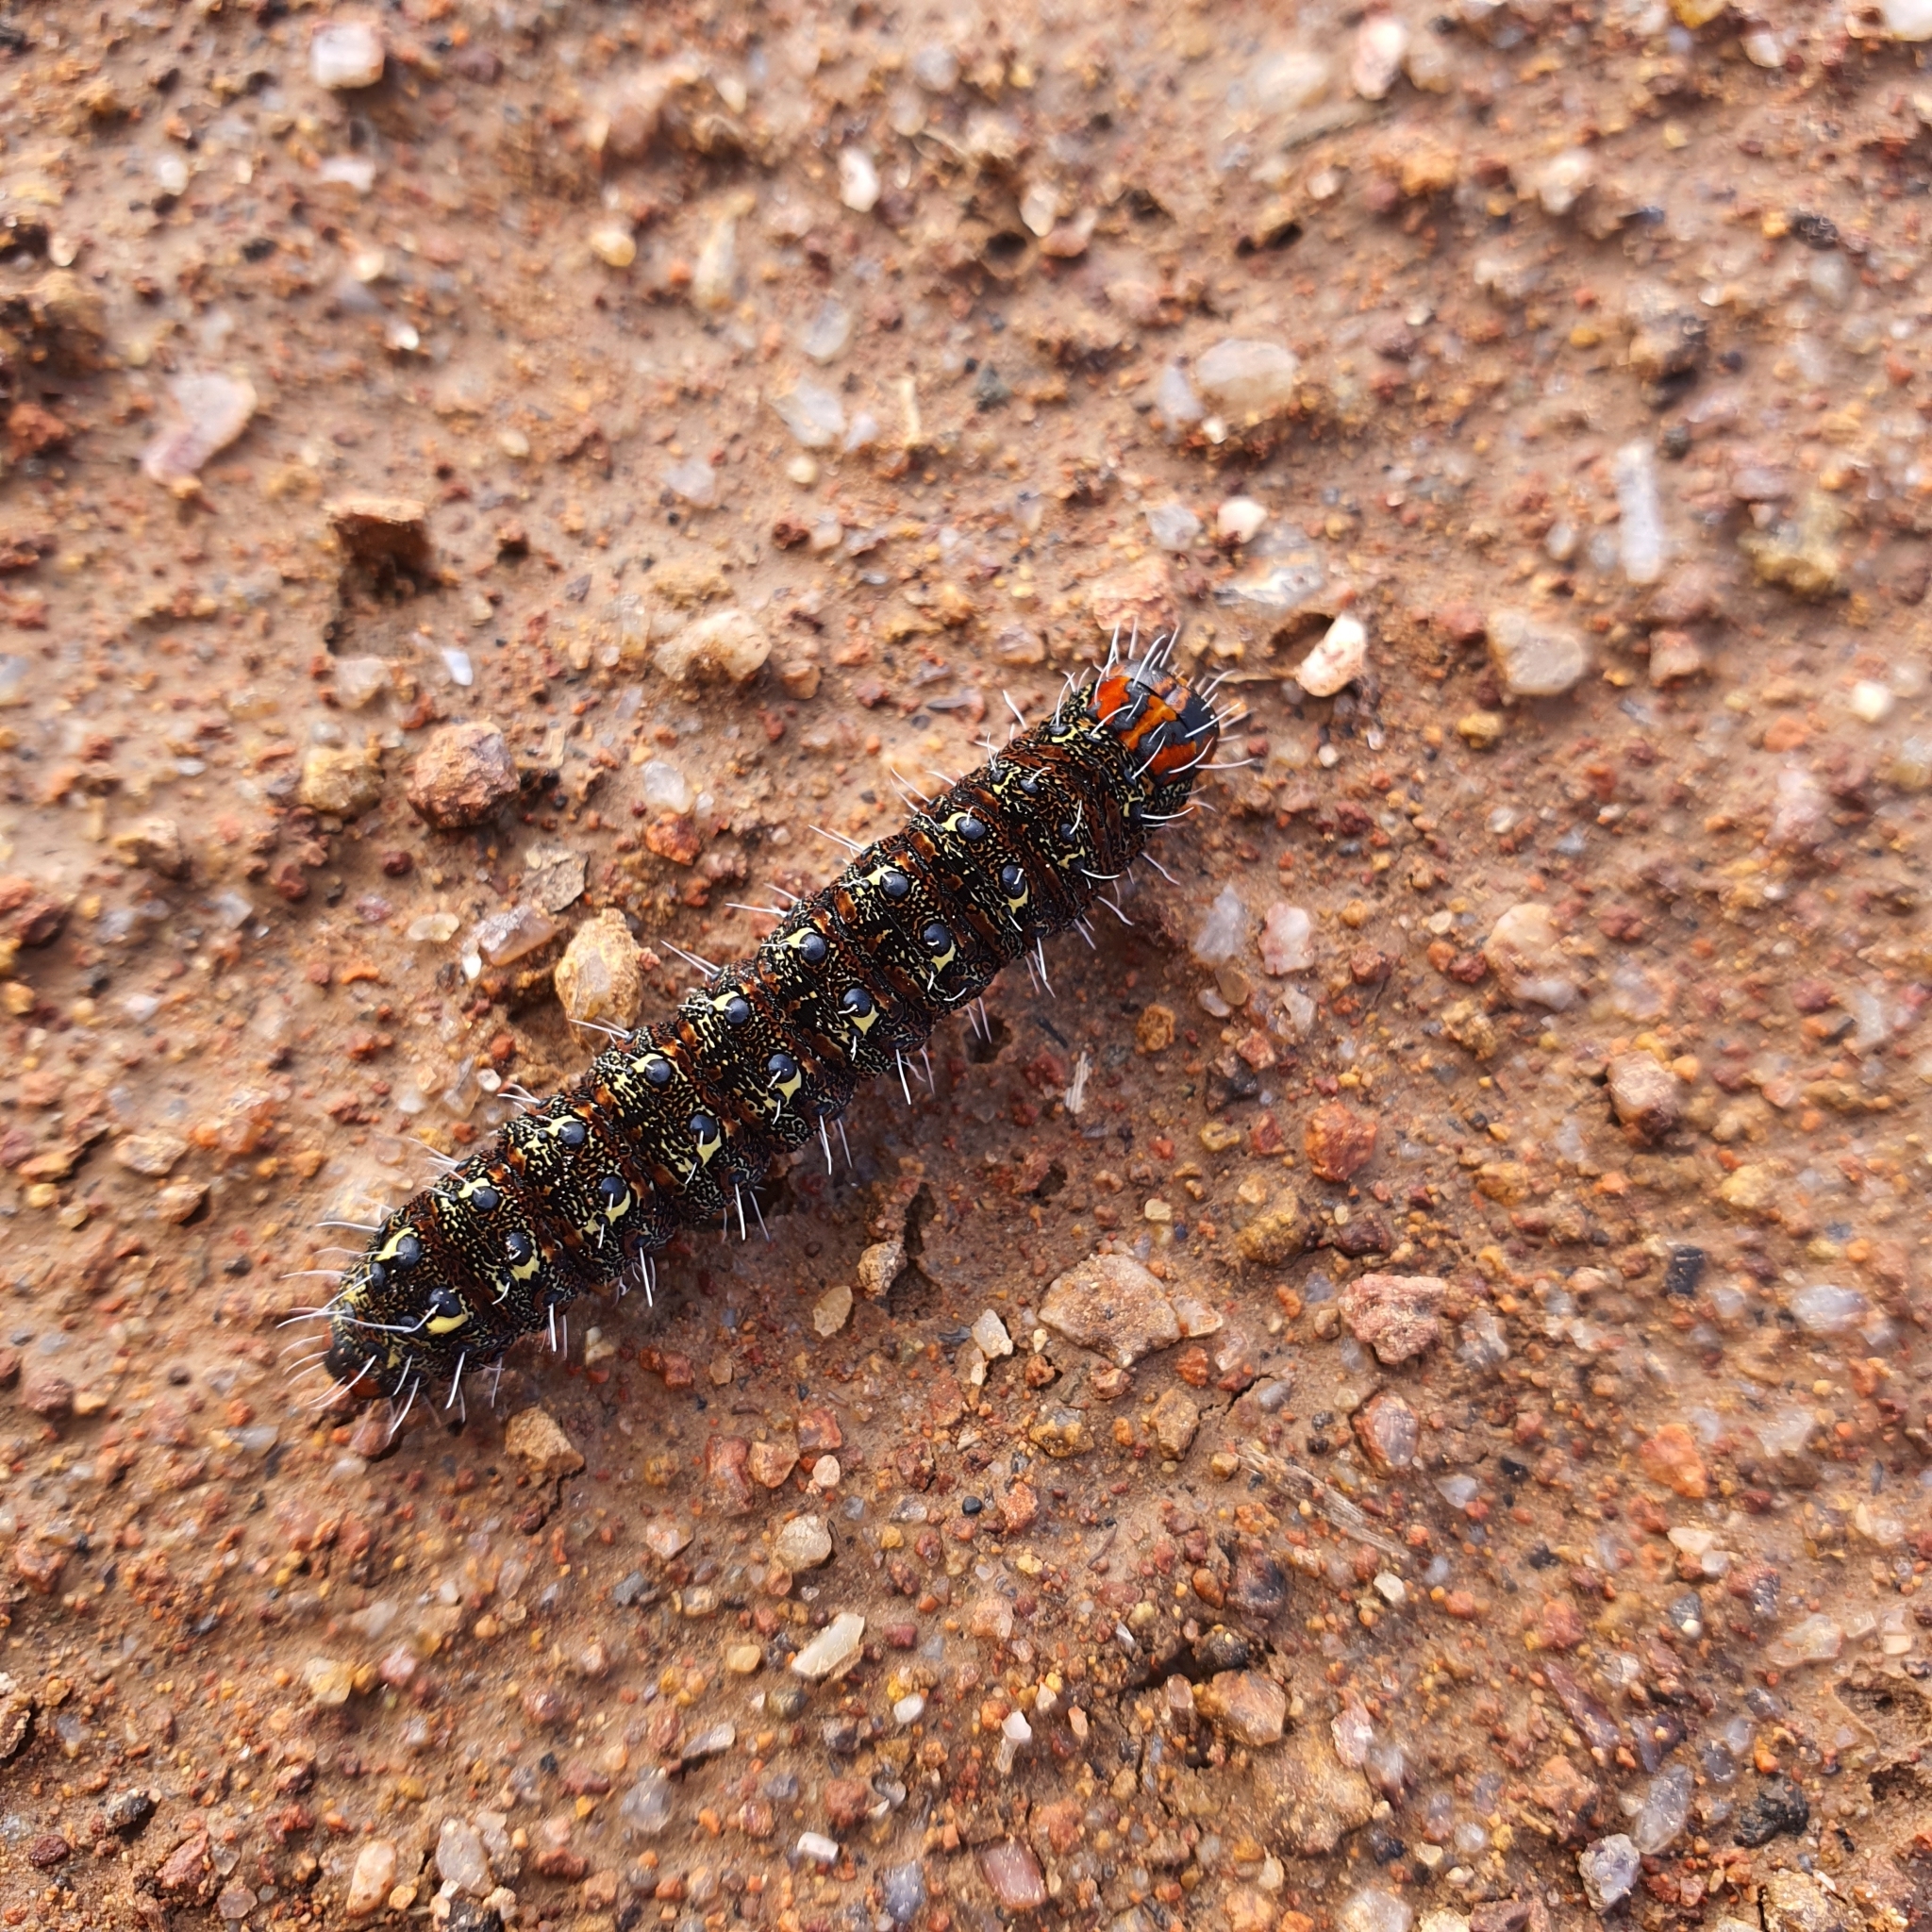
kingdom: Animalia
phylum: Arthropoda
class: Insecta
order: Lepidoptera
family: Noctuidae
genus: Apina
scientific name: Apina callisto
